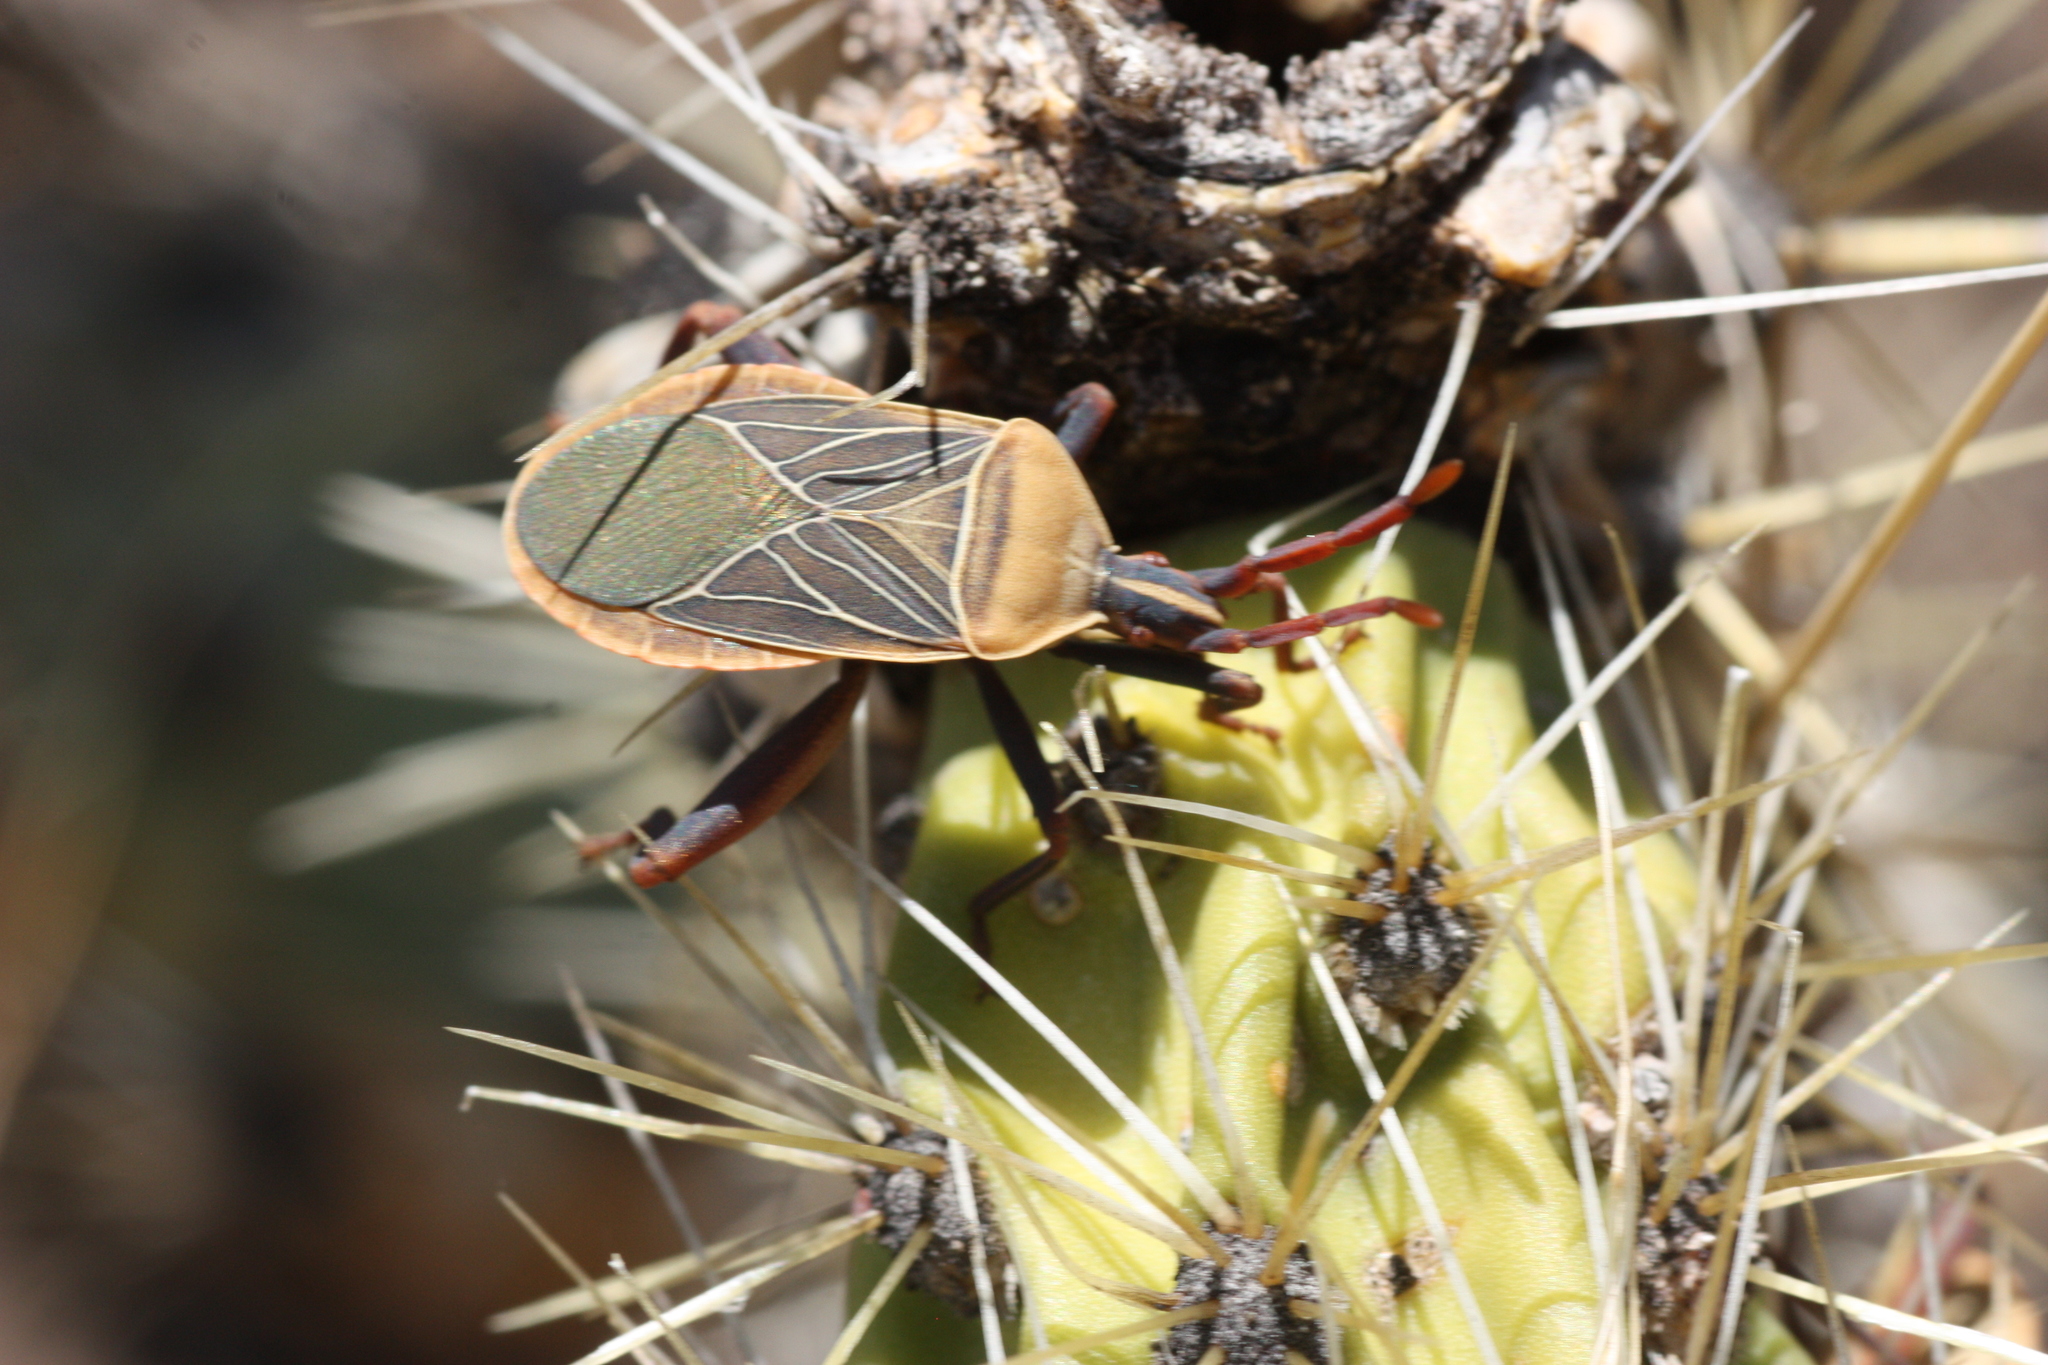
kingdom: Animalia
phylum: Arthropoda
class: Insecta
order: Hemiptera
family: Coreidae
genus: Chelinidea
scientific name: Chelinidea vittiger
